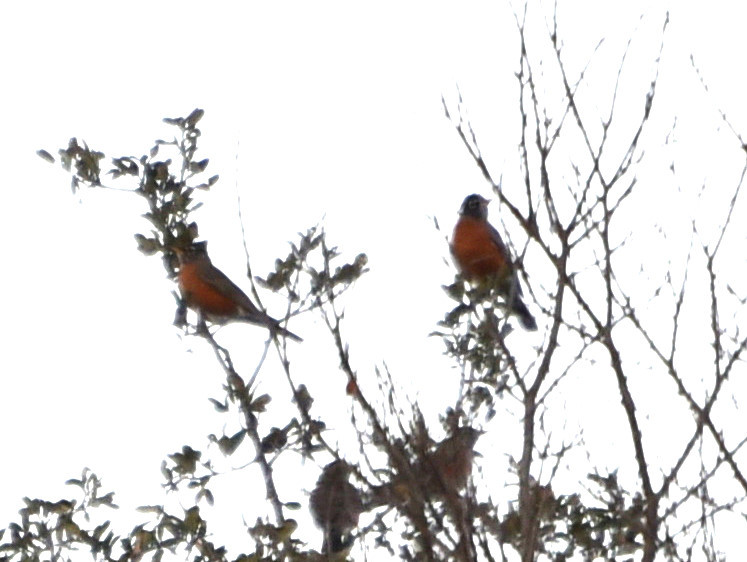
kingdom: Animalia
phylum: Chordata
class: Aves
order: Passeriformes
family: Turdidae
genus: Turdus
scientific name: Turdus migratorius
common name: American robin
